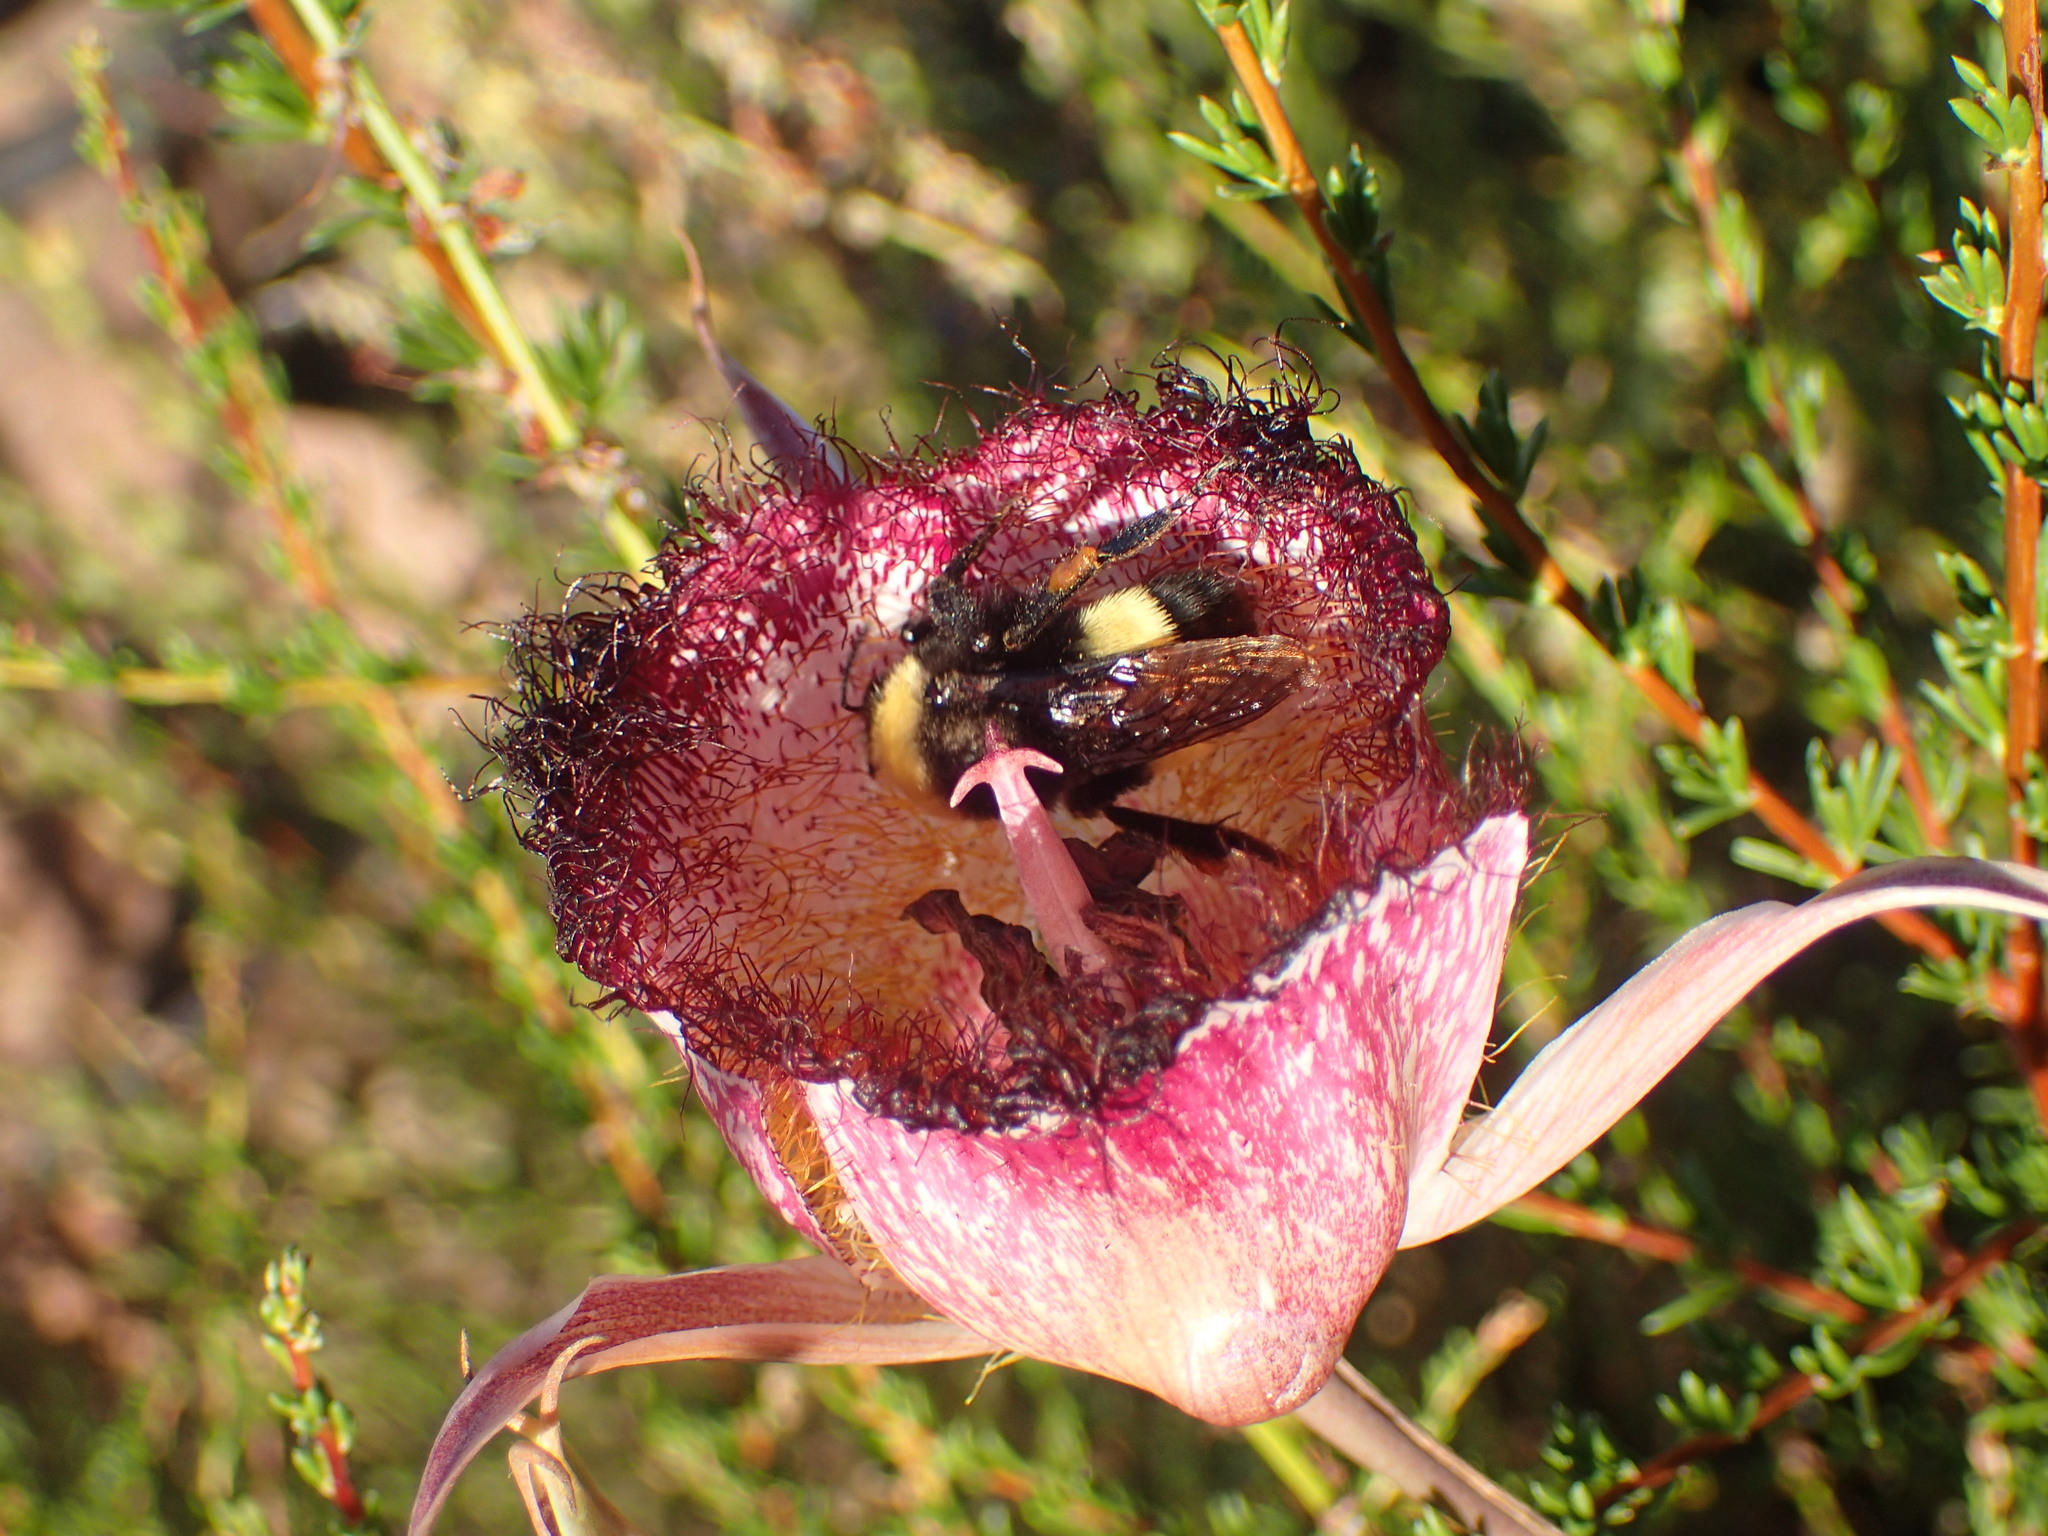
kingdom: Animalia
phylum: Arthropoda
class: Insecta
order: Hymenoptera
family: Apidae
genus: Bombus
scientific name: Bombus crotchii
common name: Crotch bumble bee
